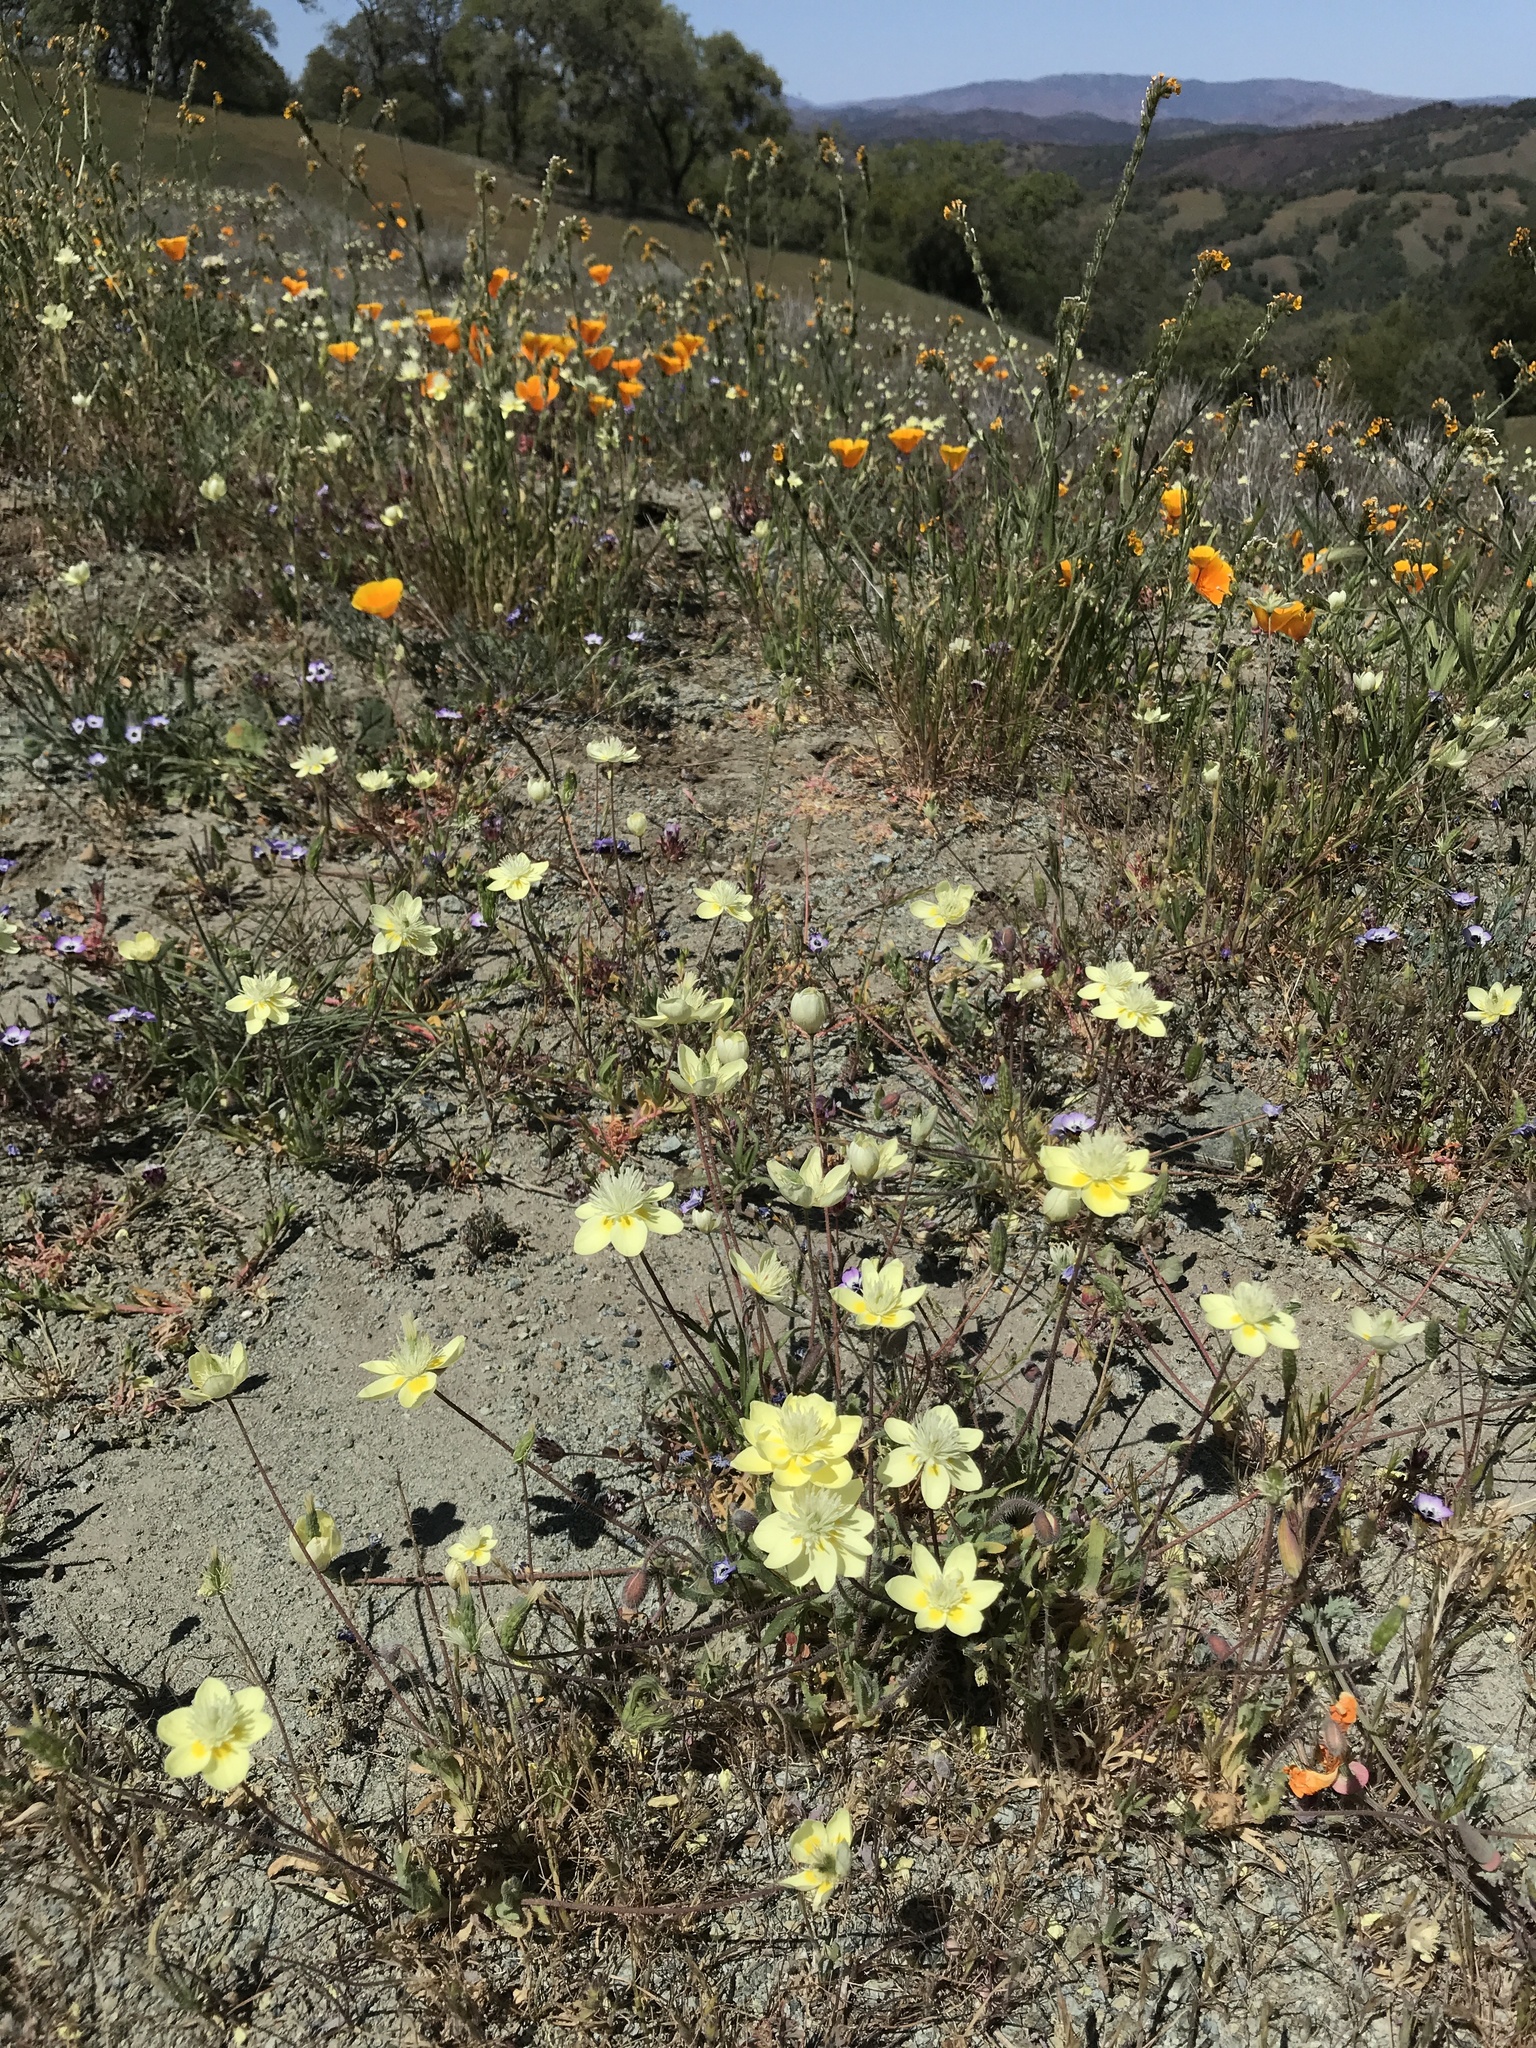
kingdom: Plantae
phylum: Tracheophyta
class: Magnoliopsida
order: Ranunculales
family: Papaveraceae
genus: Platystemon
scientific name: Platystemon californicus
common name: Cream-cups
